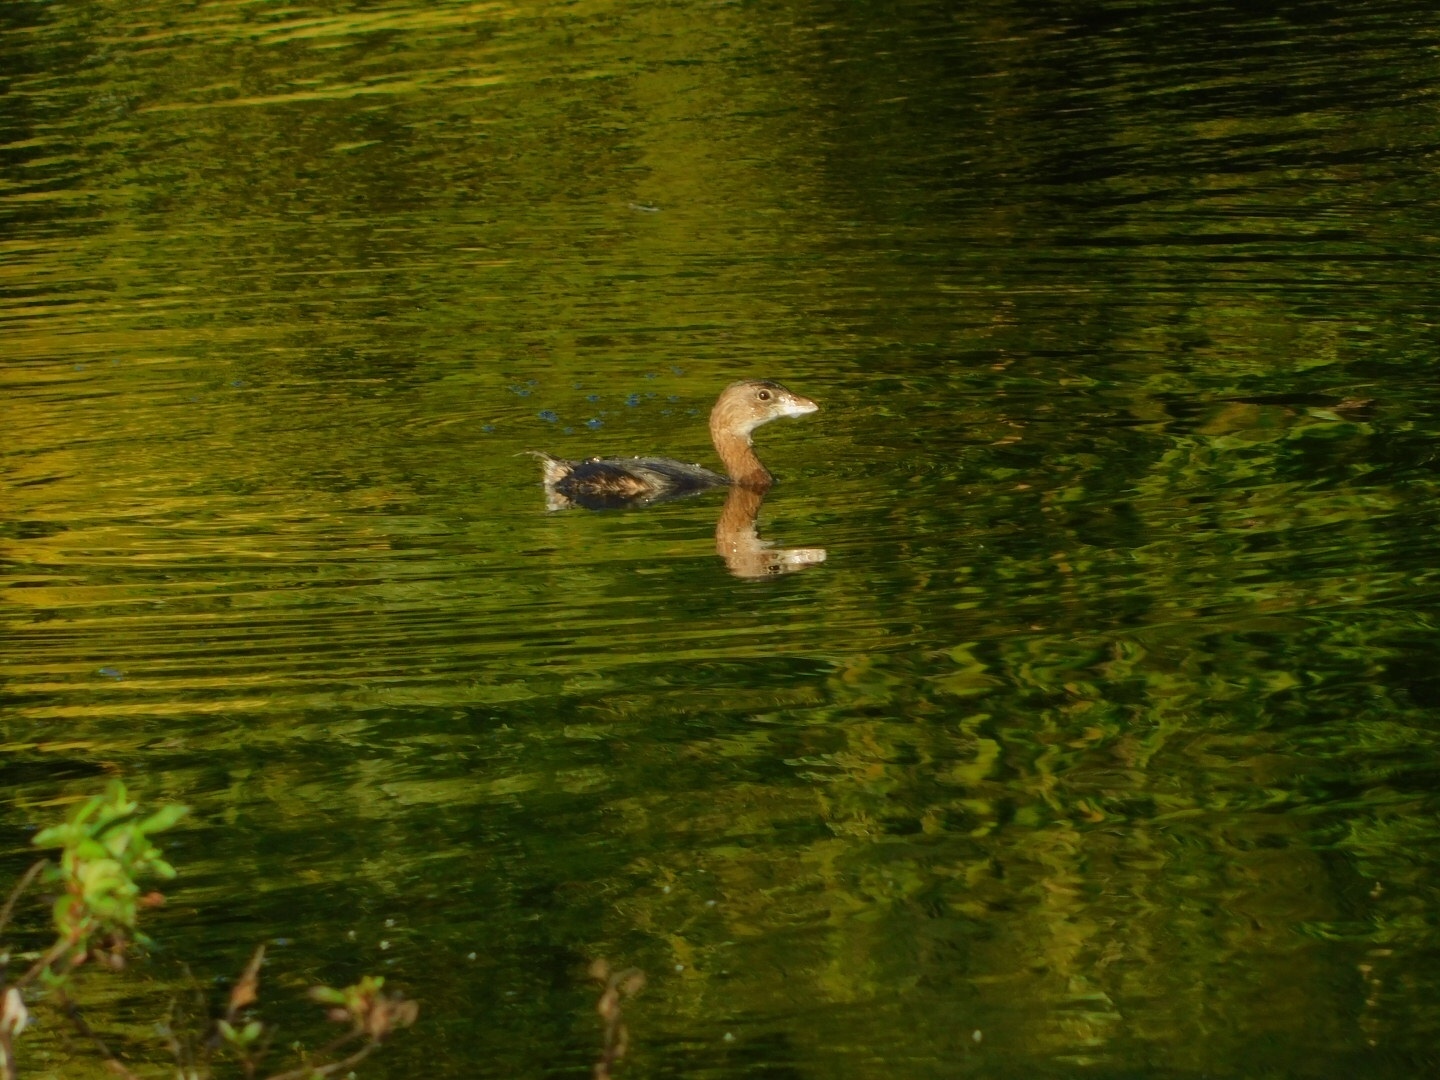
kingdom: Animalia
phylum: Chordata
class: Aves
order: Podicipediformes
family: Podicipedidae
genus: Podilymbus
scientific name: Podilymbus podiceps
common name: Pied-billed grebe
